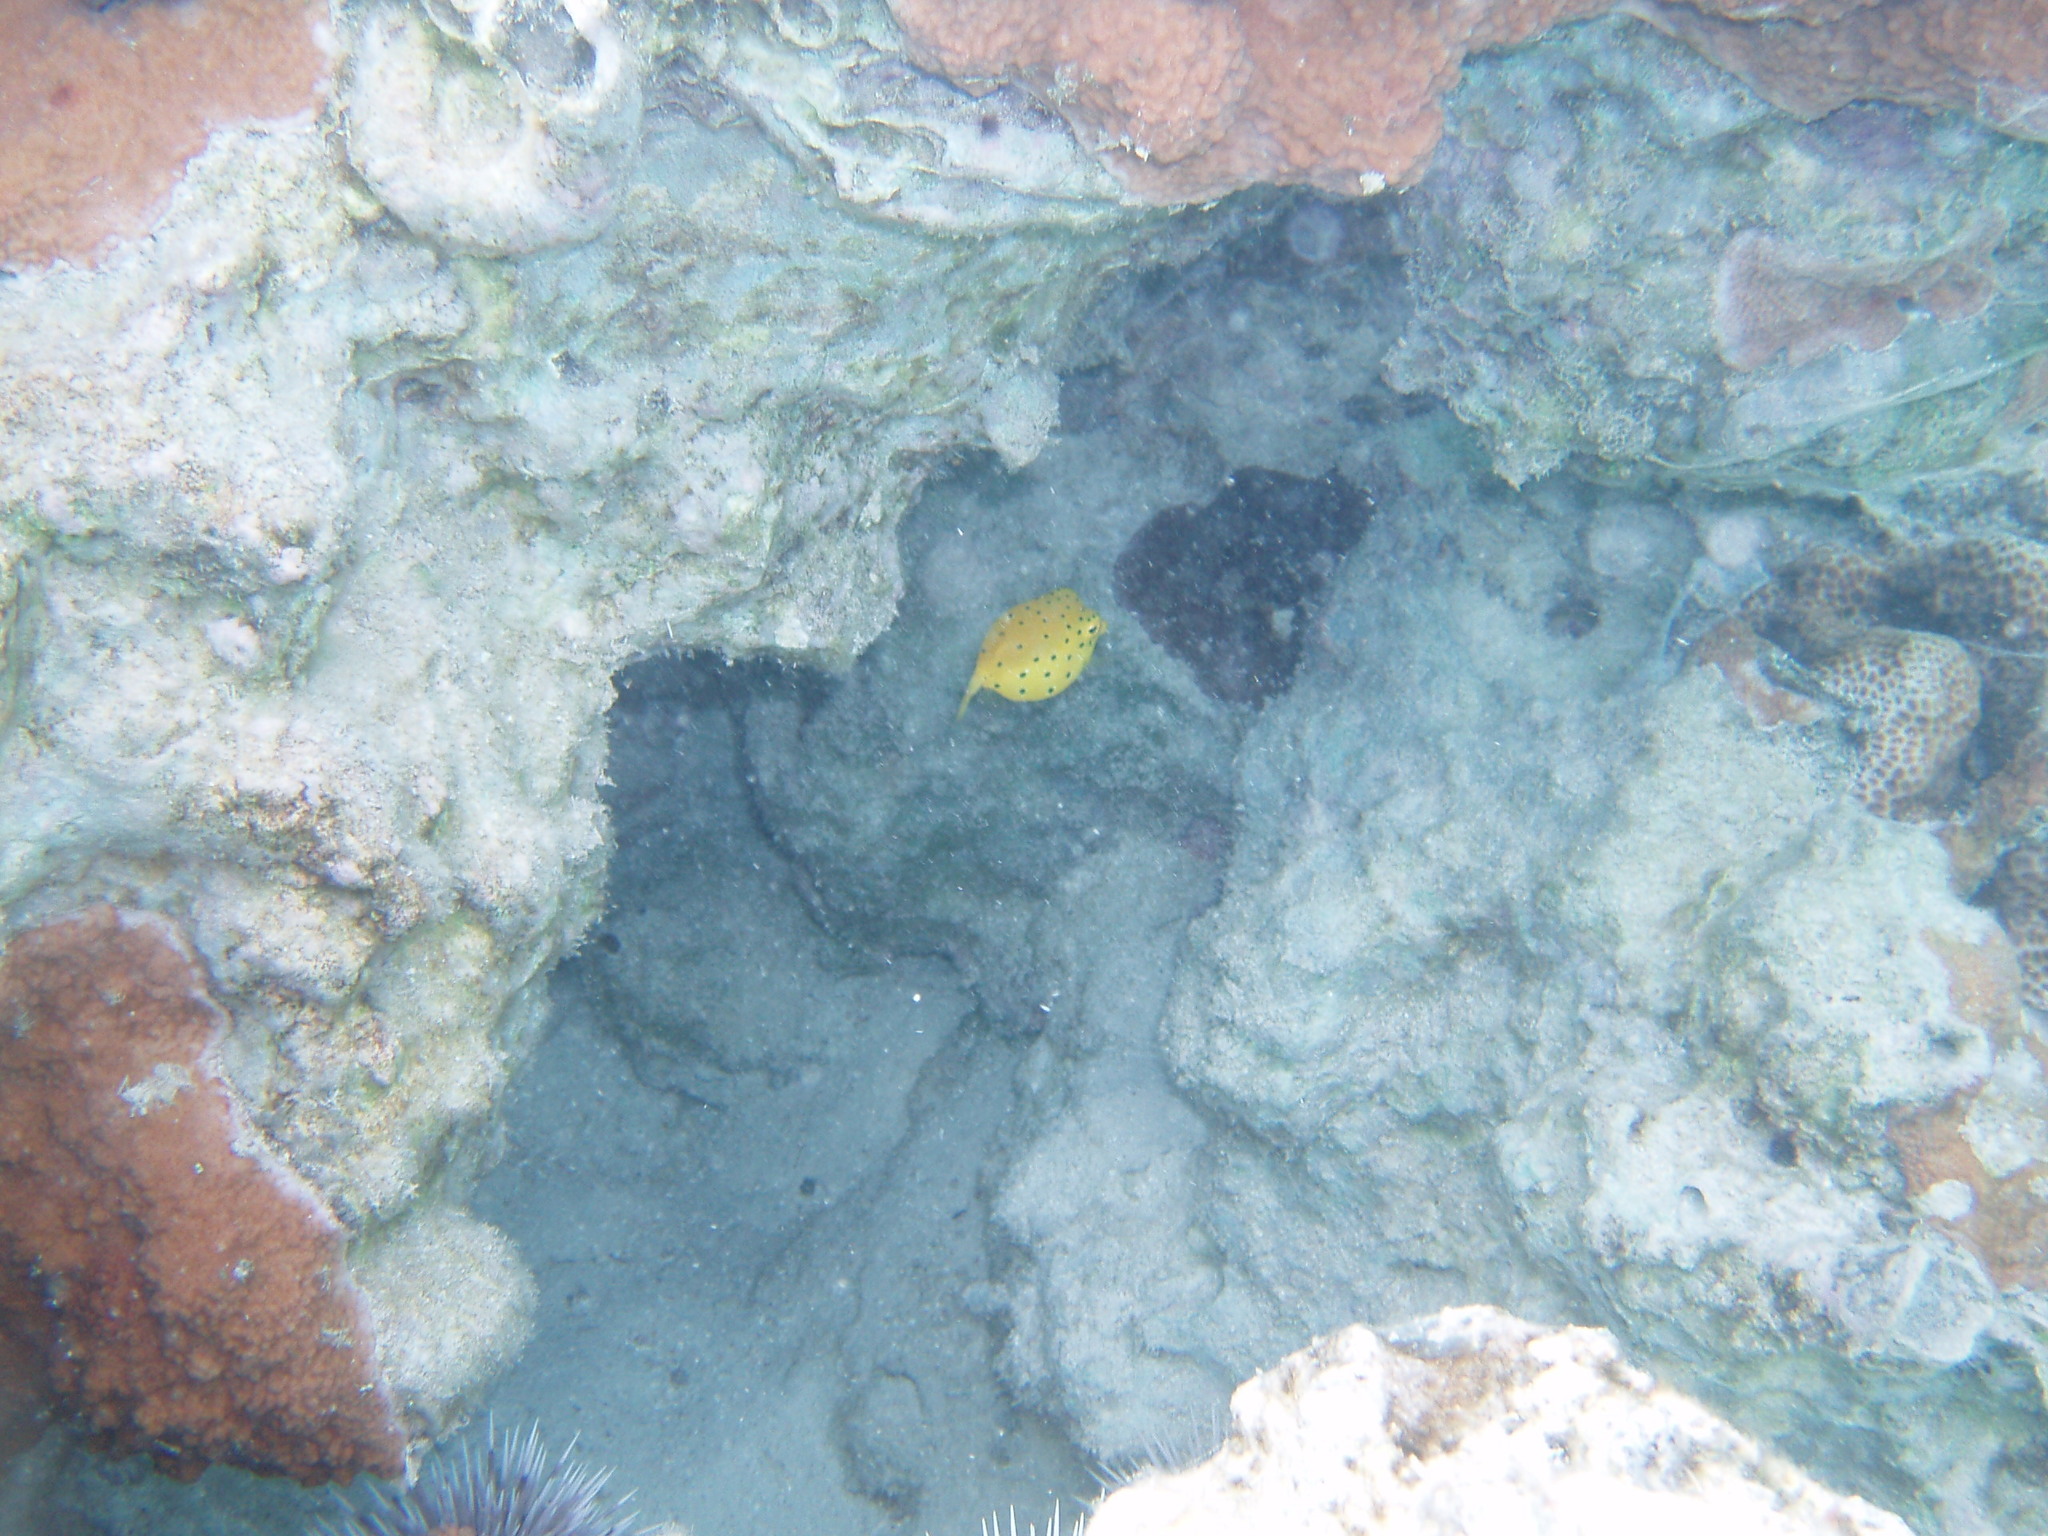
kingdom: Animalia
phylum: Chordata
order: Tetraodontiformes
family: Ostraciidae
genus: Ostracion
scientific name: Ostracion cubicus
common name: Cube trunkfish
